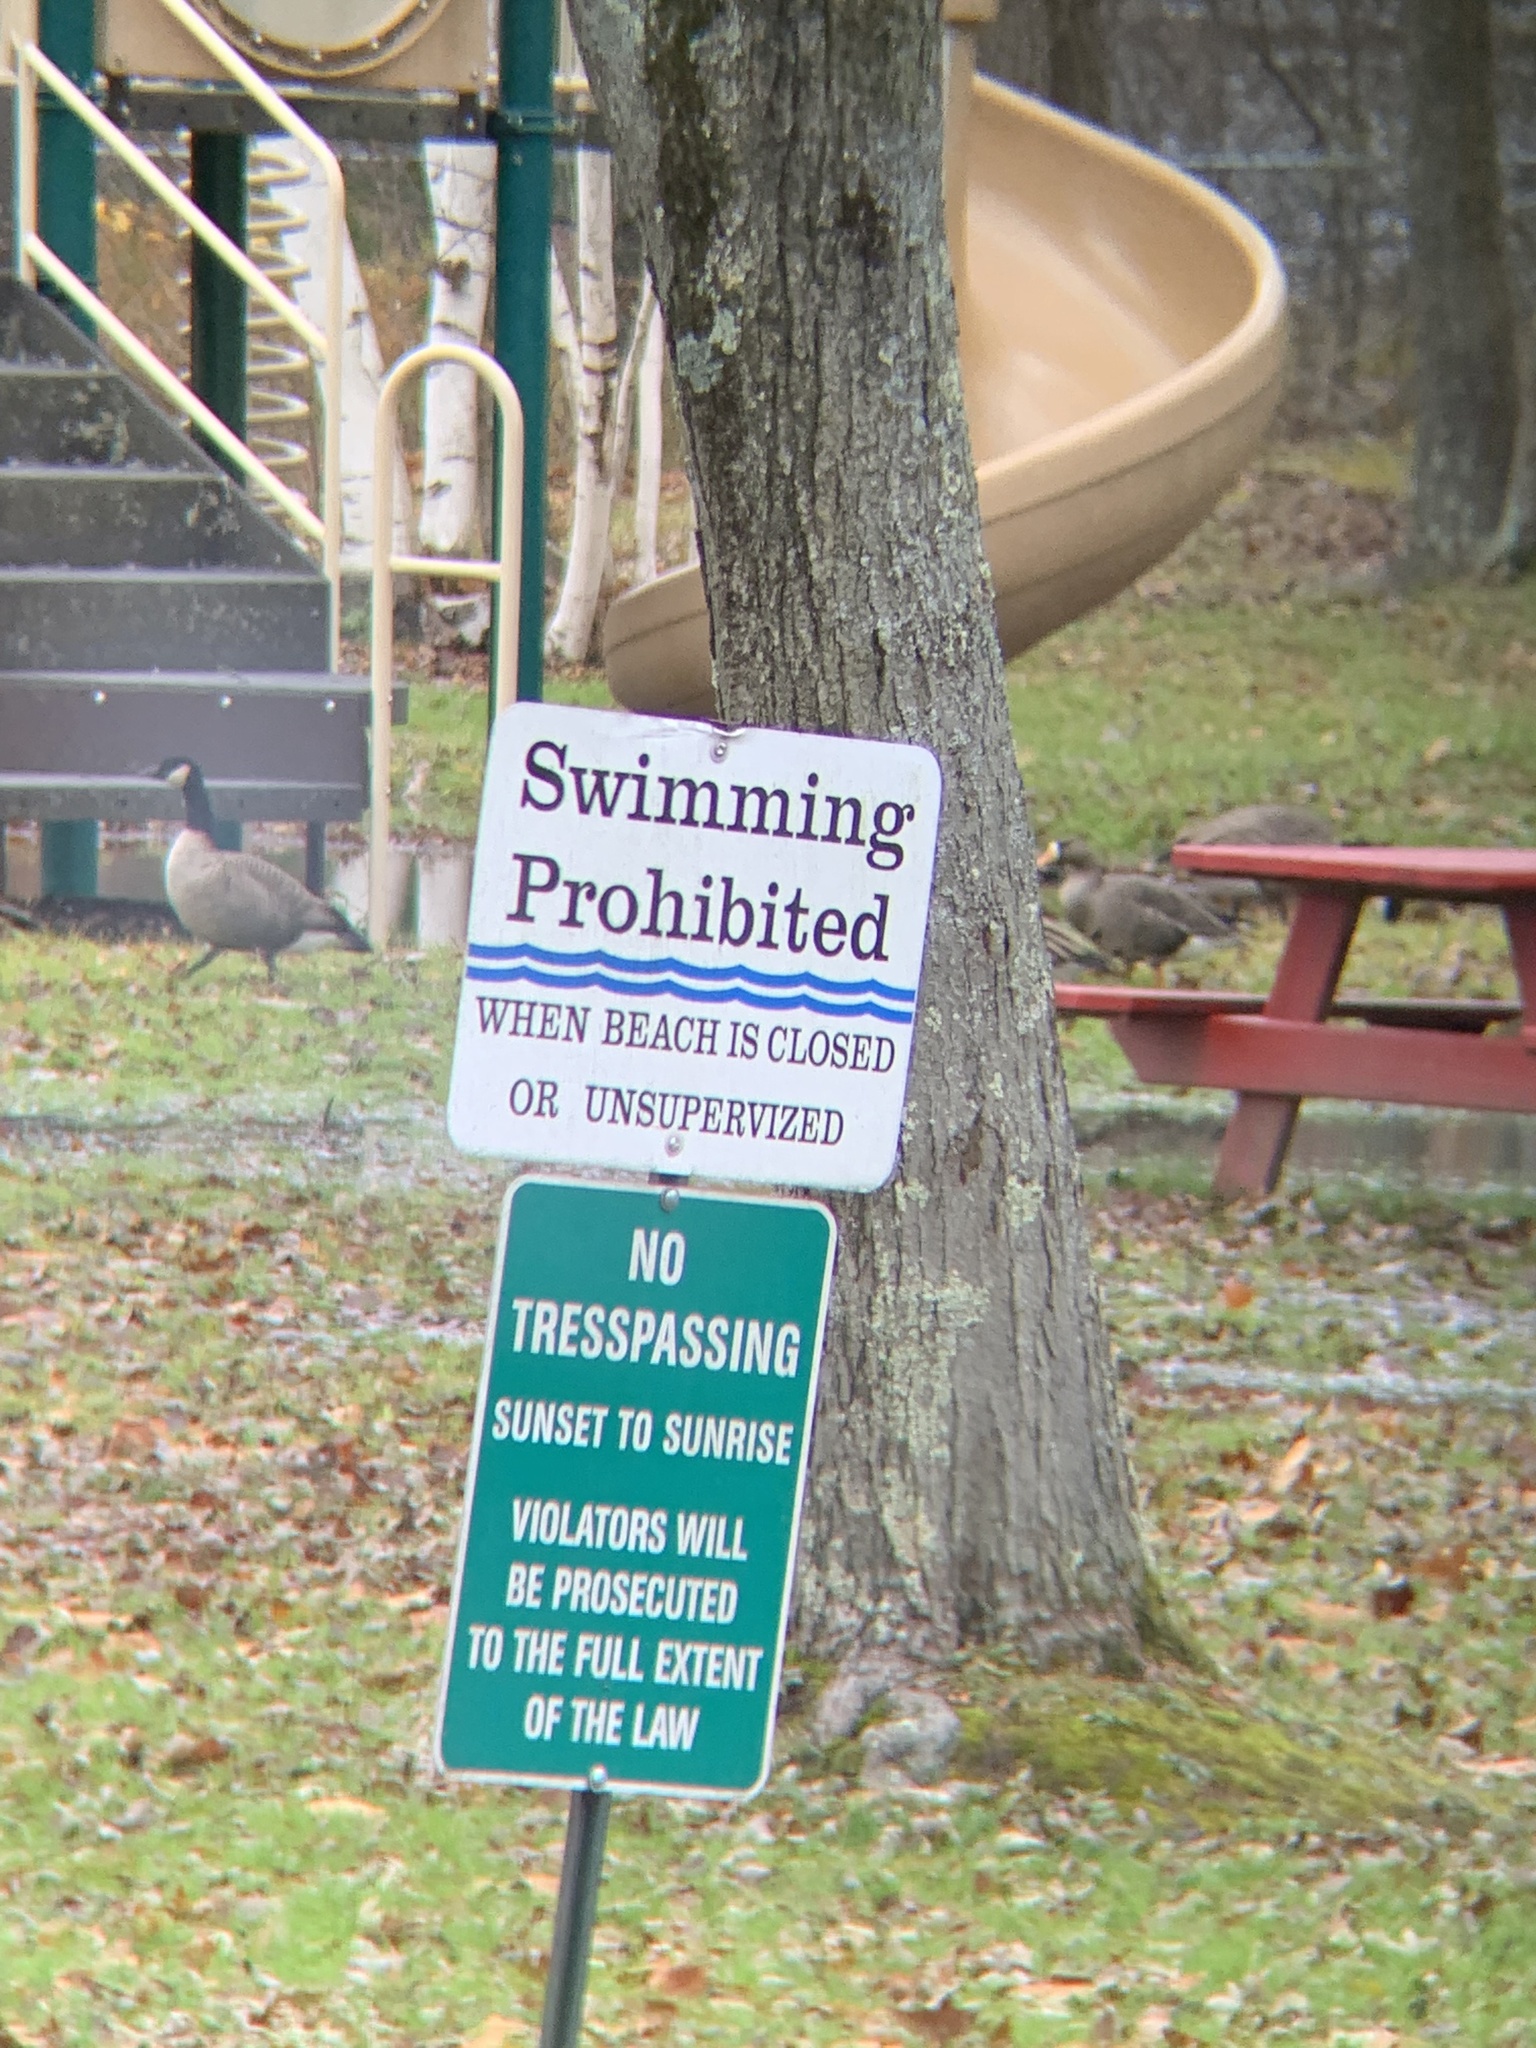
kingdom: Animalia
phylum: Chordata
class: Aves
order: Anseriformes
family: Anatidae
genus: Anser
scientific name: Anser albifrons
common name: Greater white-fronted goose
